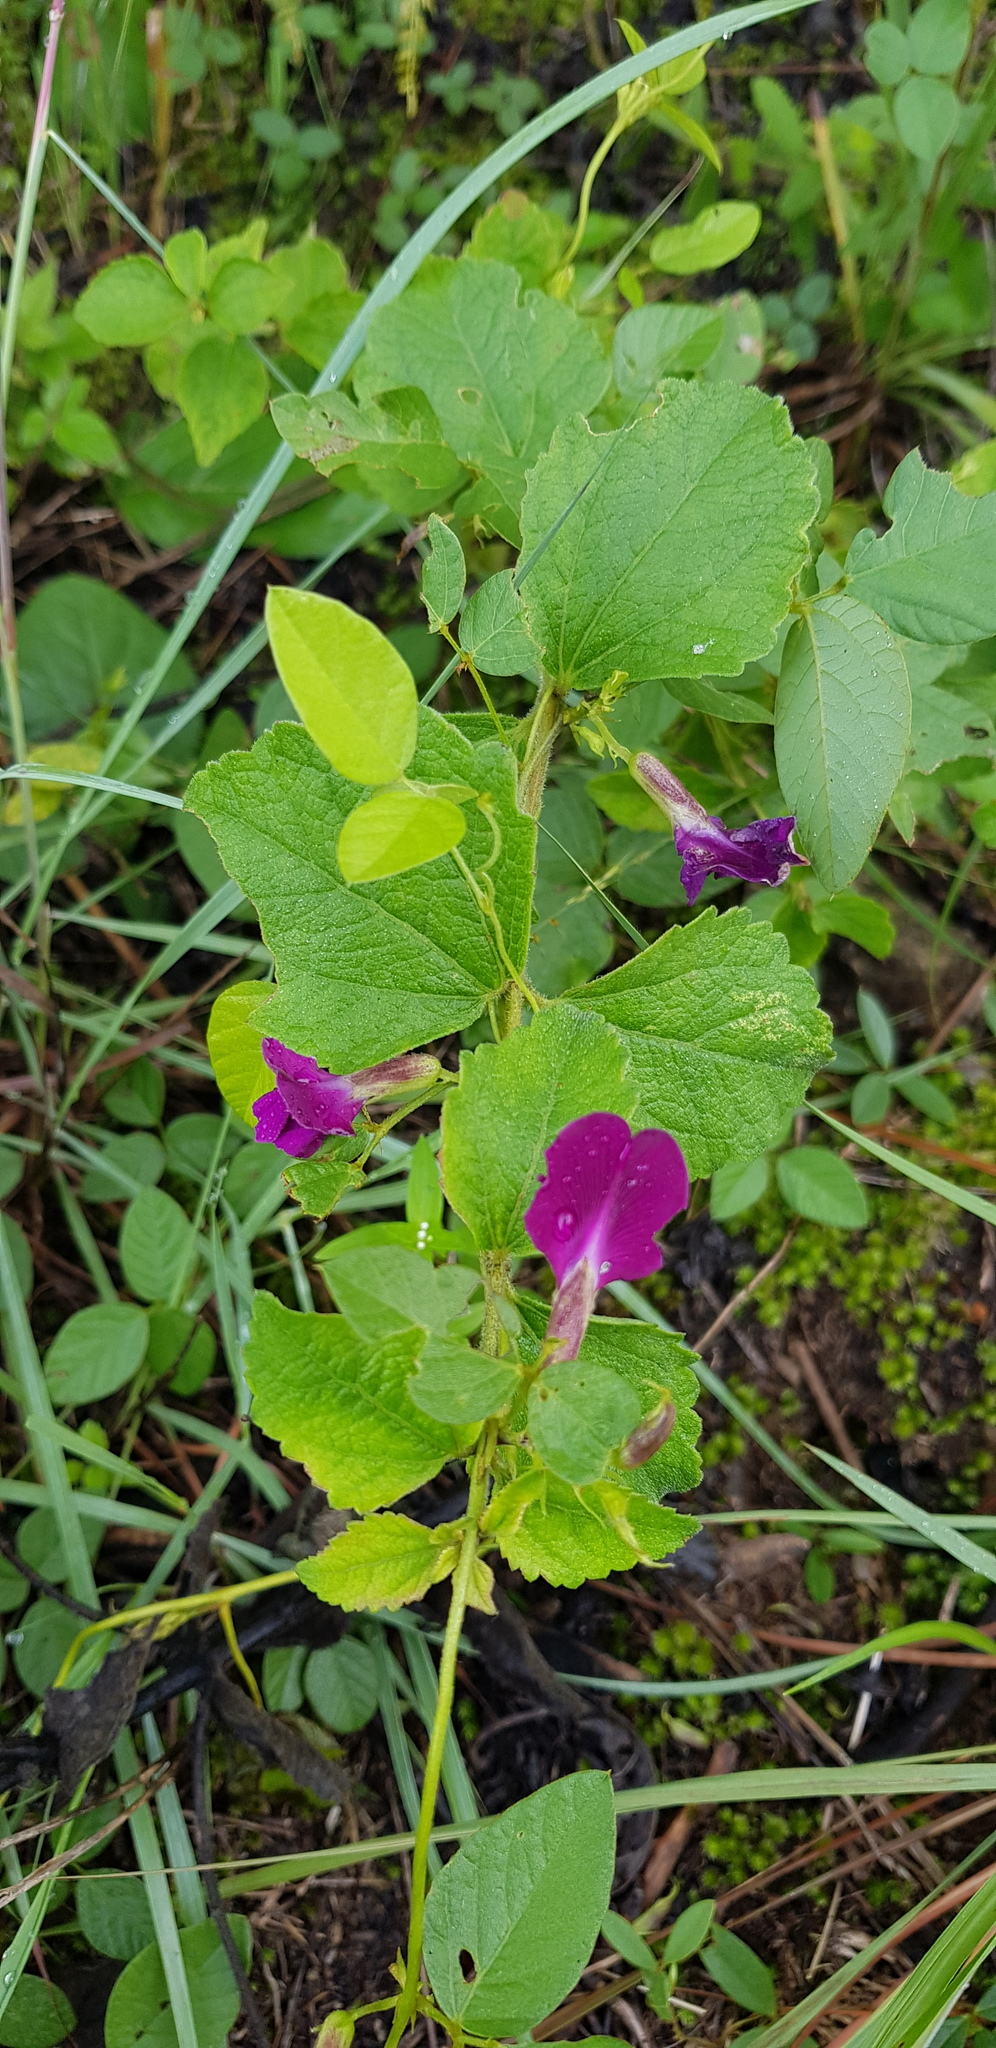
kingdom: Plantae
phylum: Tracheophyta
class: Magnoliopsida
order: Fabales
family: Fabaceae
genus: Cologania
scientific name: Cologania broussonetii
